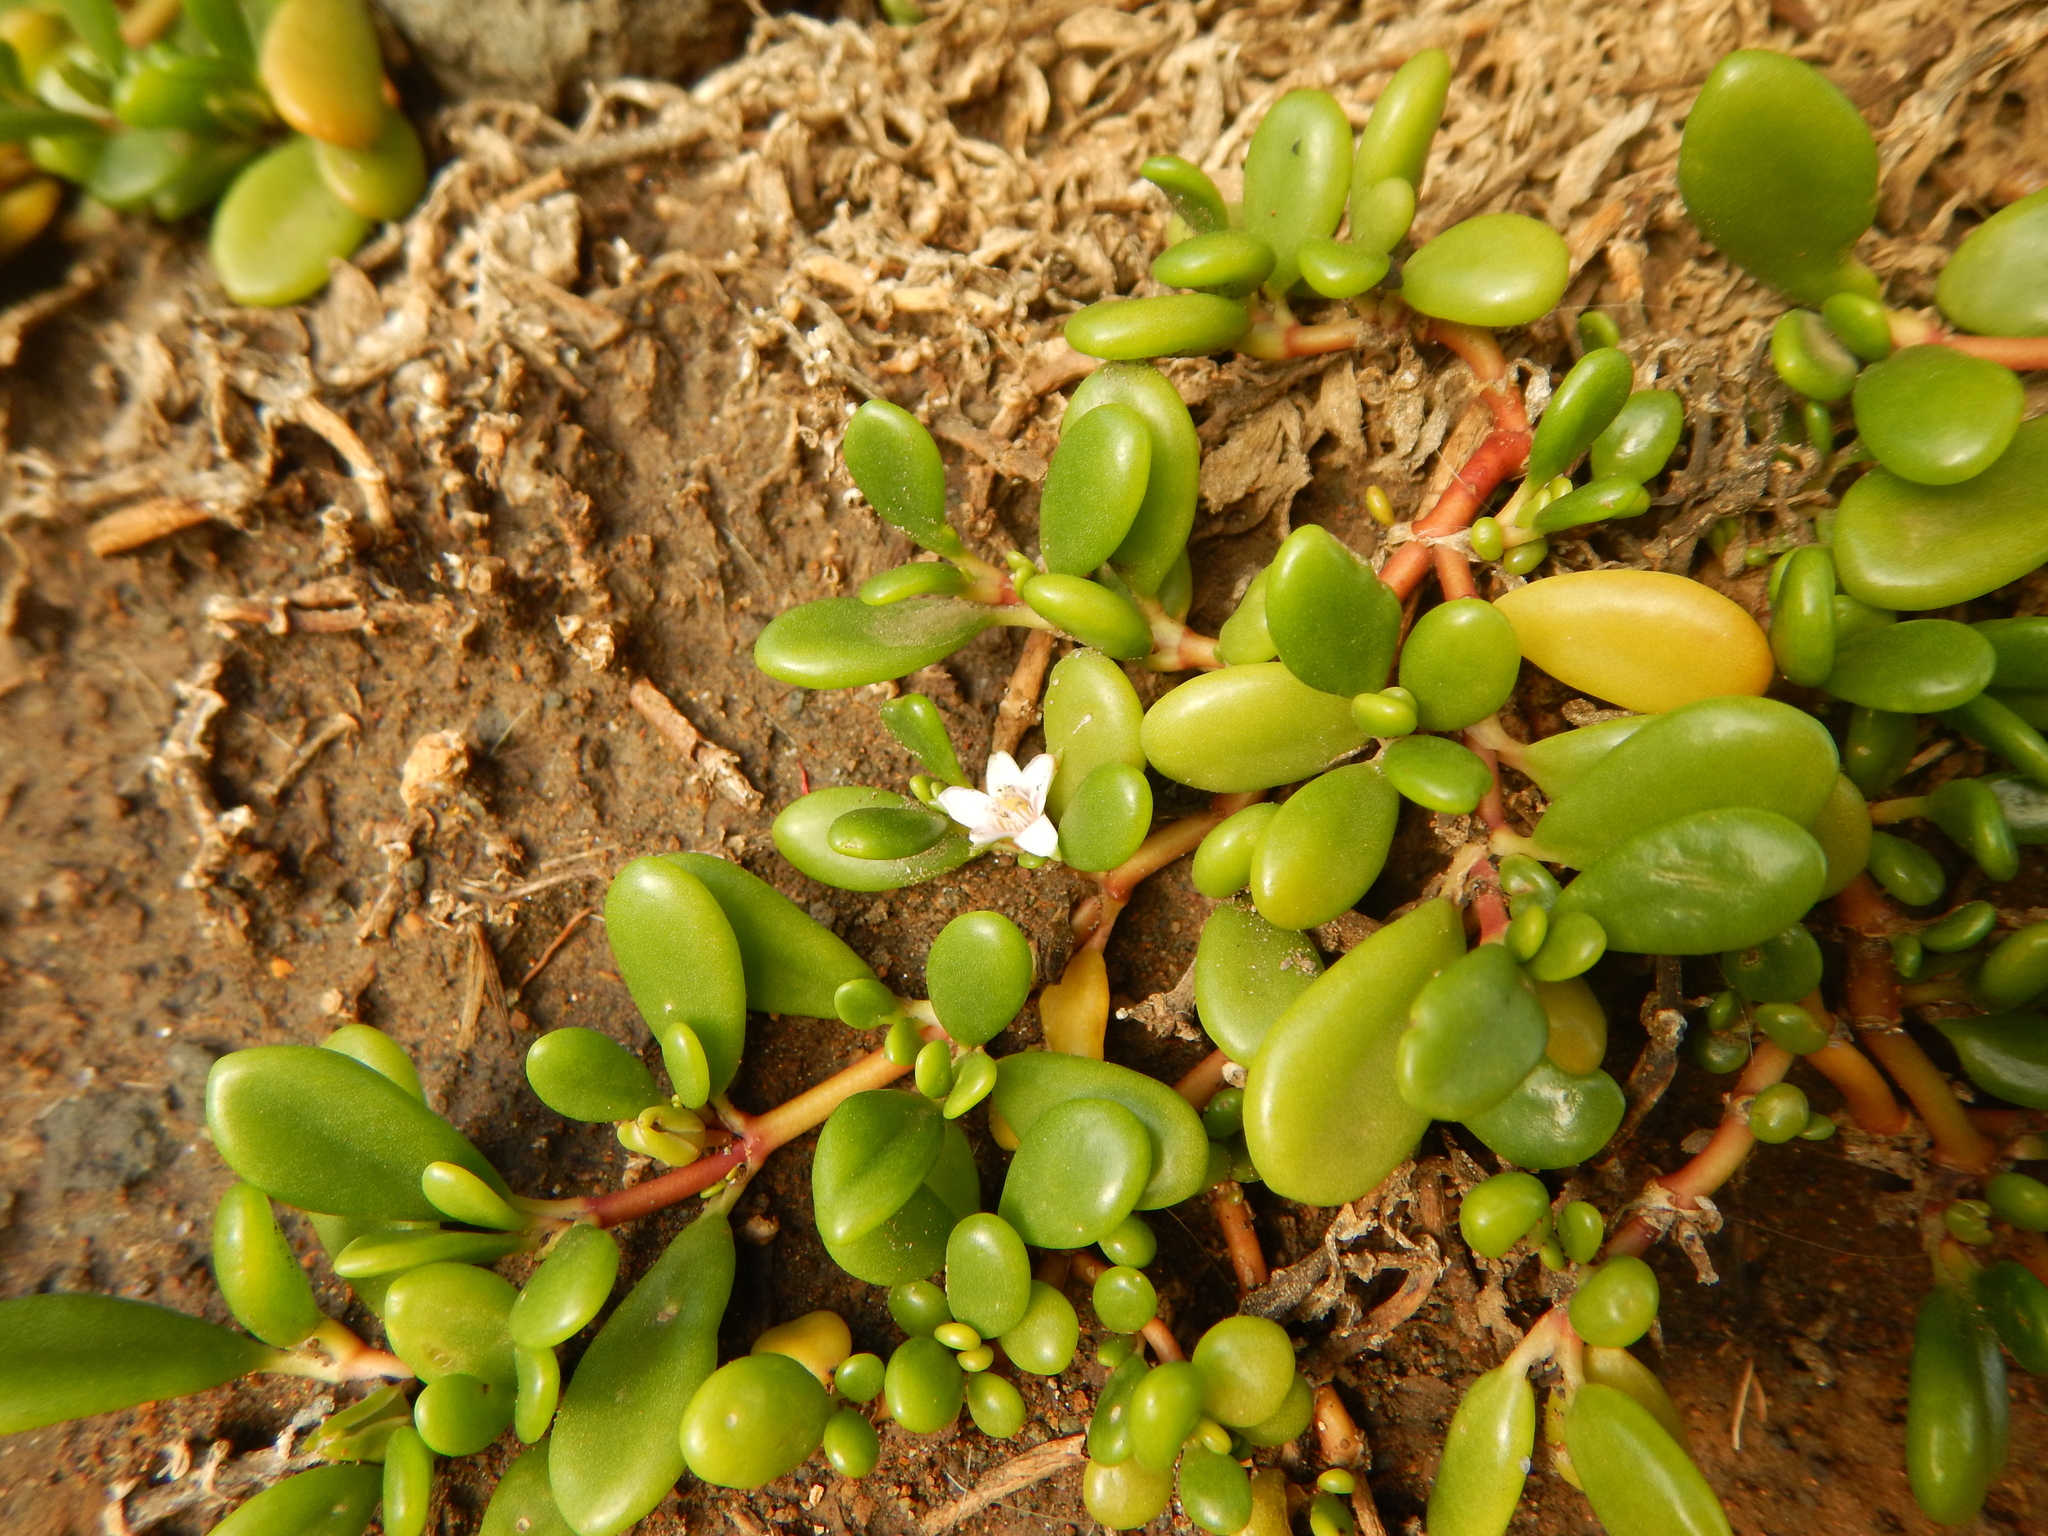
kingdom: Plantae
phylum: Tracheophyta
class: Magnoliopsida
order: Caryophyllales
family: Aizoaceae
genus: Sesuvium
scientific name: Sesuvium portulacastrum
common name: Sea-purslane
